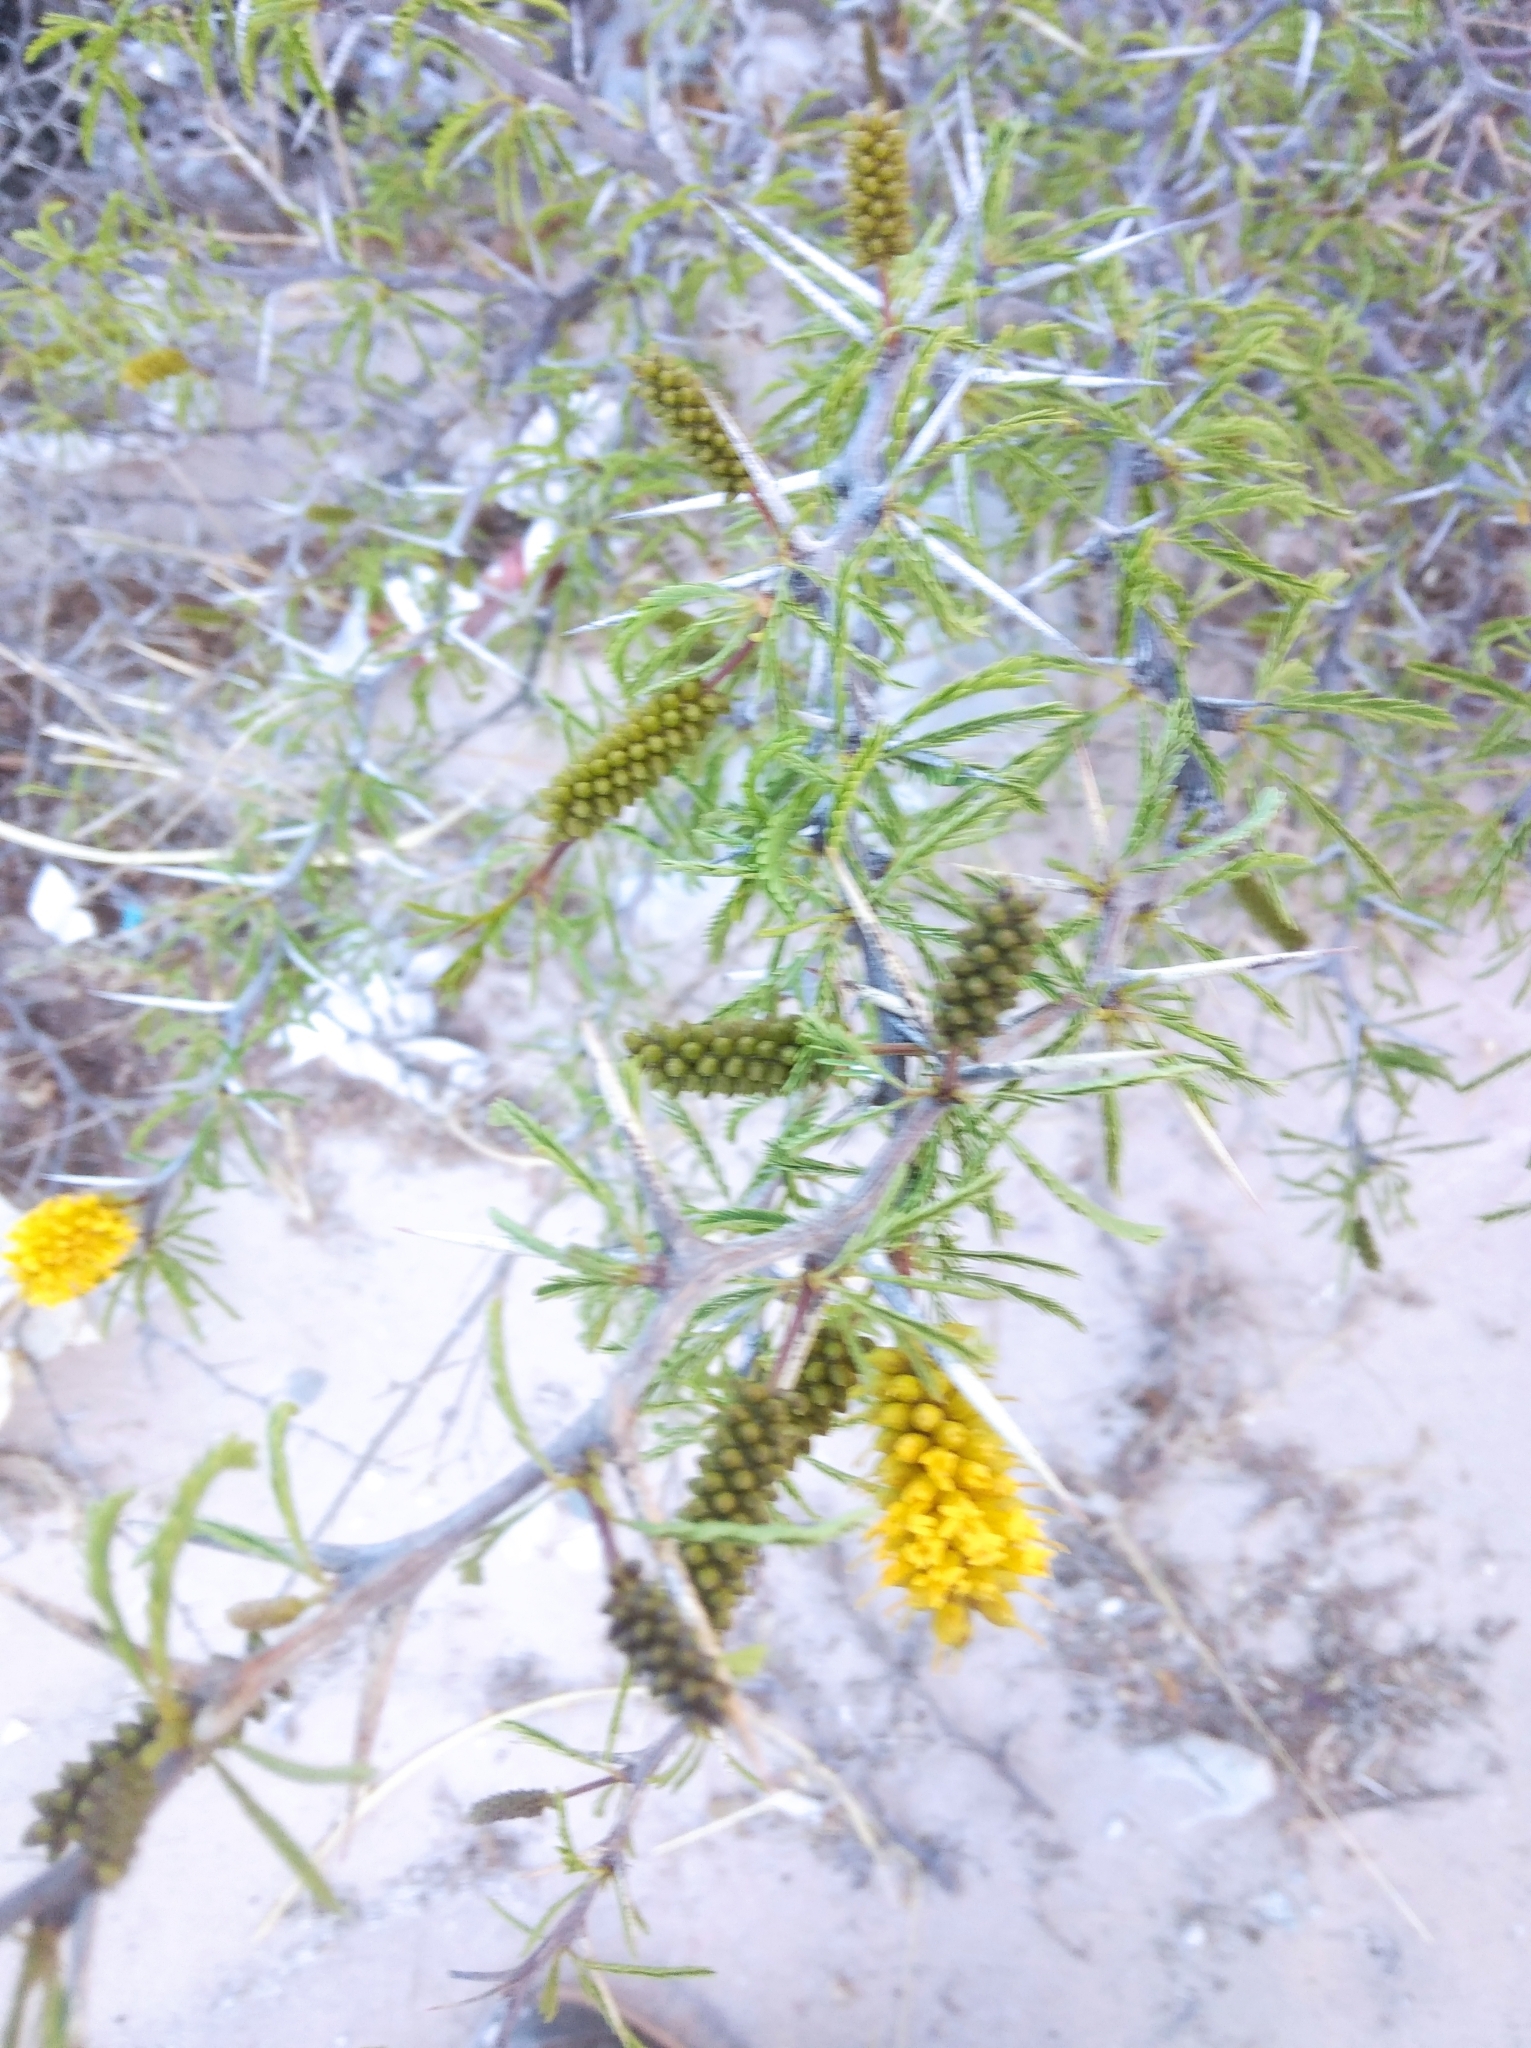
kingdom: Plantae
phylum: Tracheophyta
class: Magnoliopsida
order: Fabales
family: Fabaceae
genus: Prosopis
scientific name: Prosopis ferox
